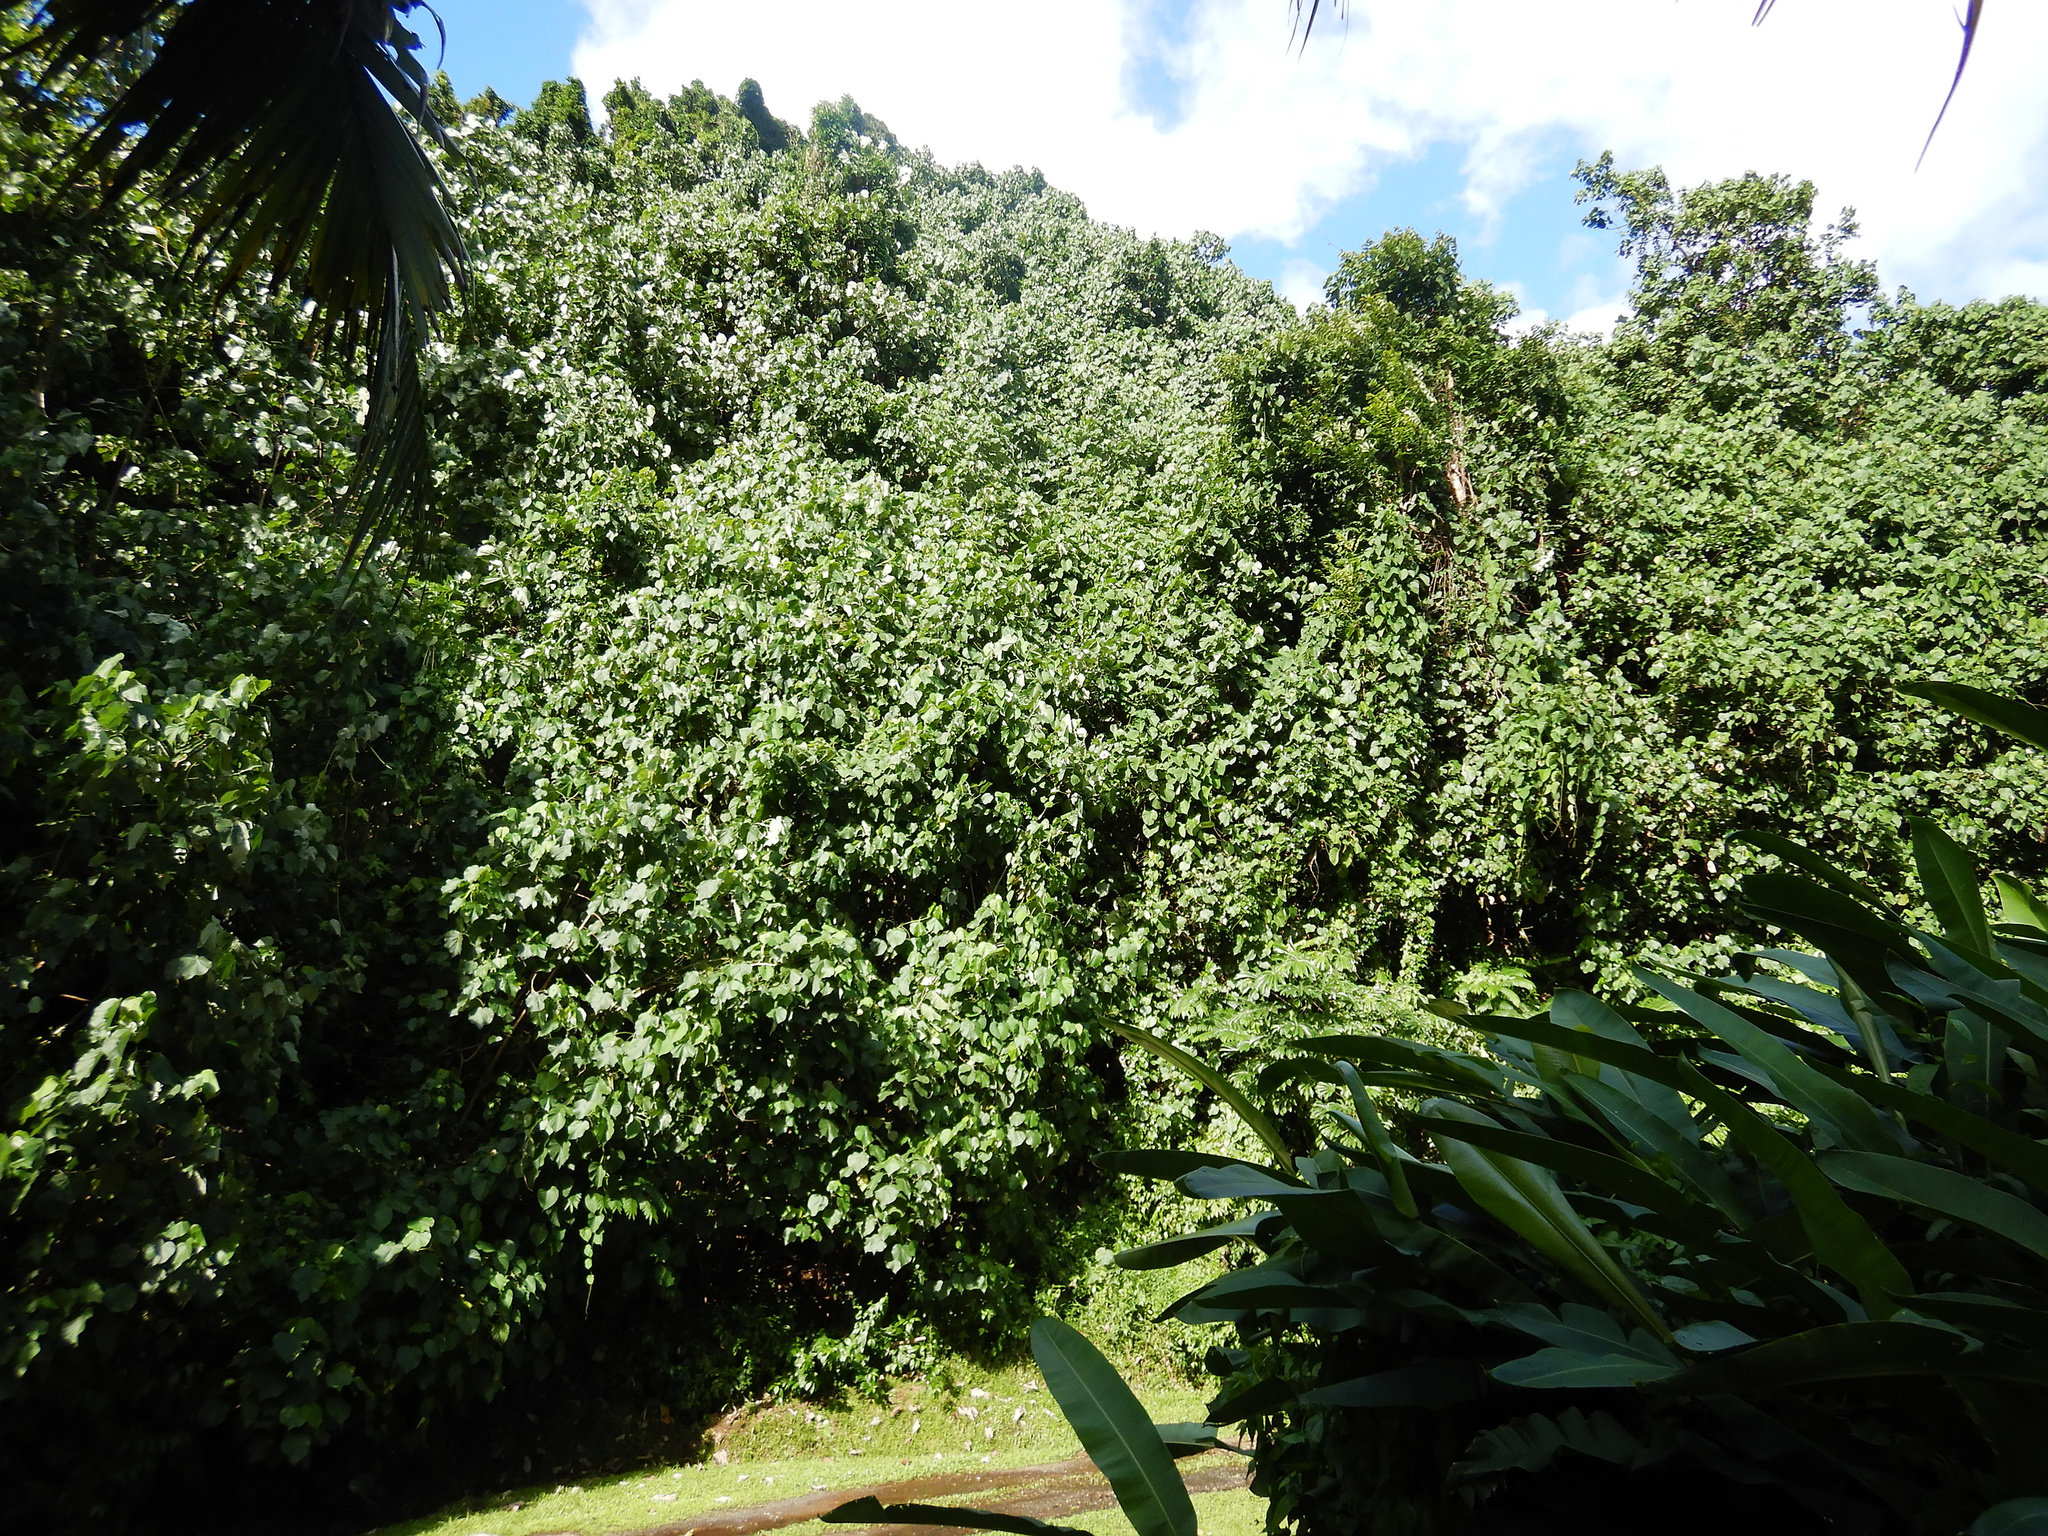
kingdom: Plantae
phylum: Tracheophyta
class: Magnoliopsida
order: Malvales
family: Malvaceae
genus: Talipariti
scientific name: Talipariti tiliaceum
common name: Sea hibiscus
